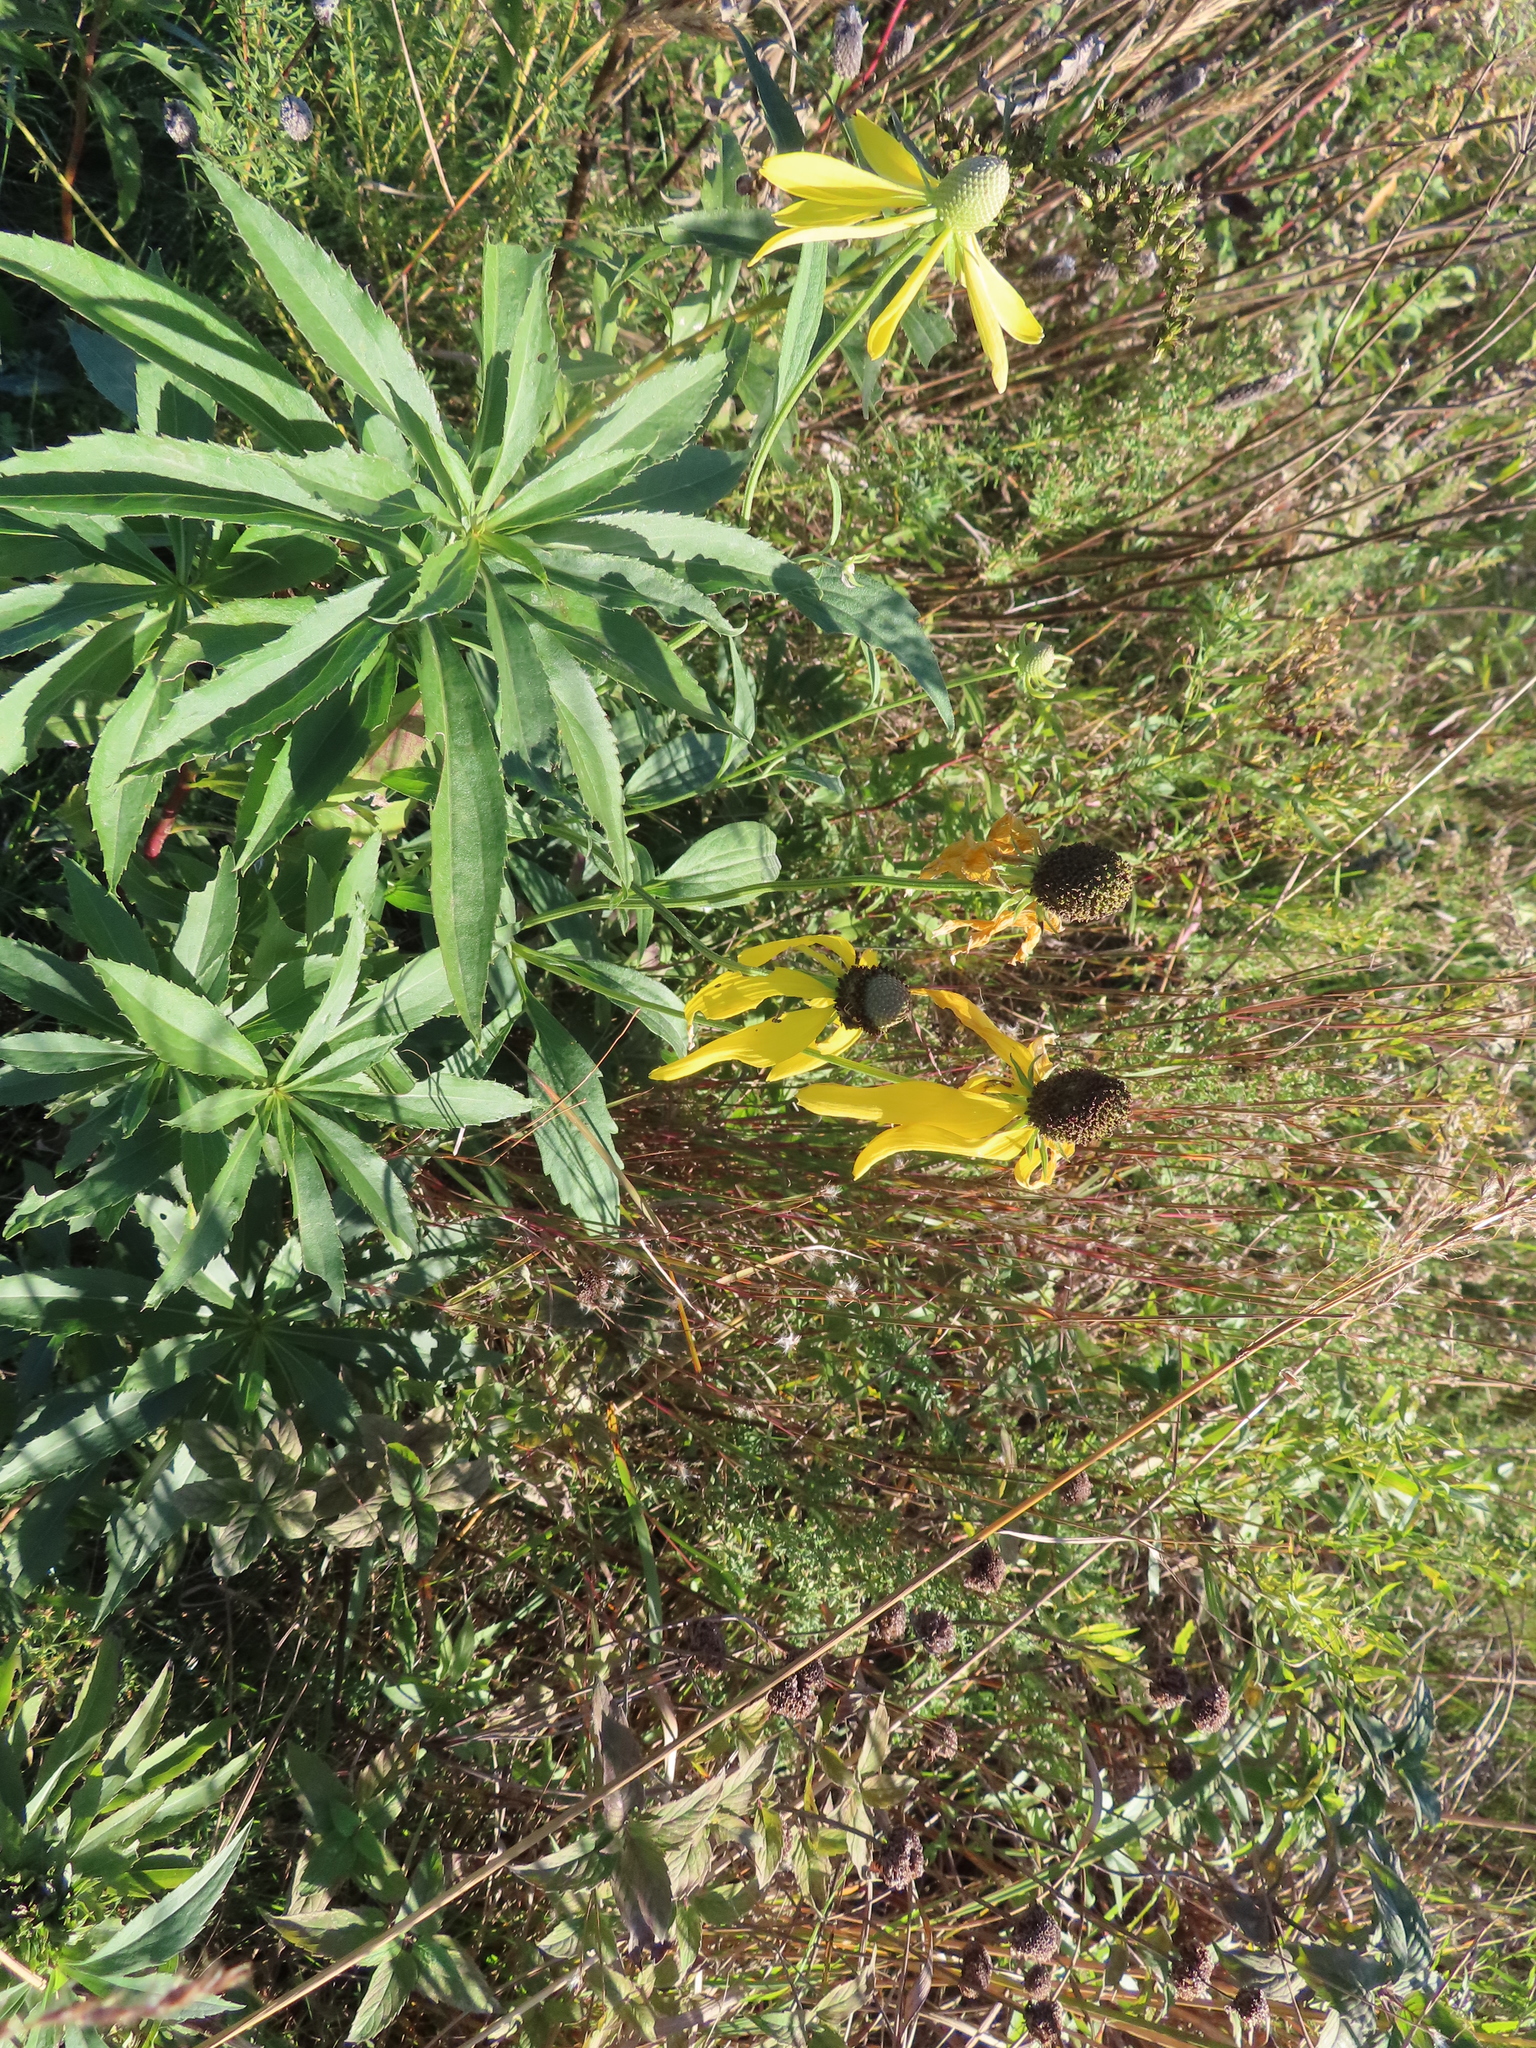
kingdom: Plantae
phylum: Tracheophyta
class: Magnoliopsida
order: Asterales
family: Asteraceae
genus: Ratibida
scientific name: Ratibida pinnata
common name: Drooping prairie-coneflower
